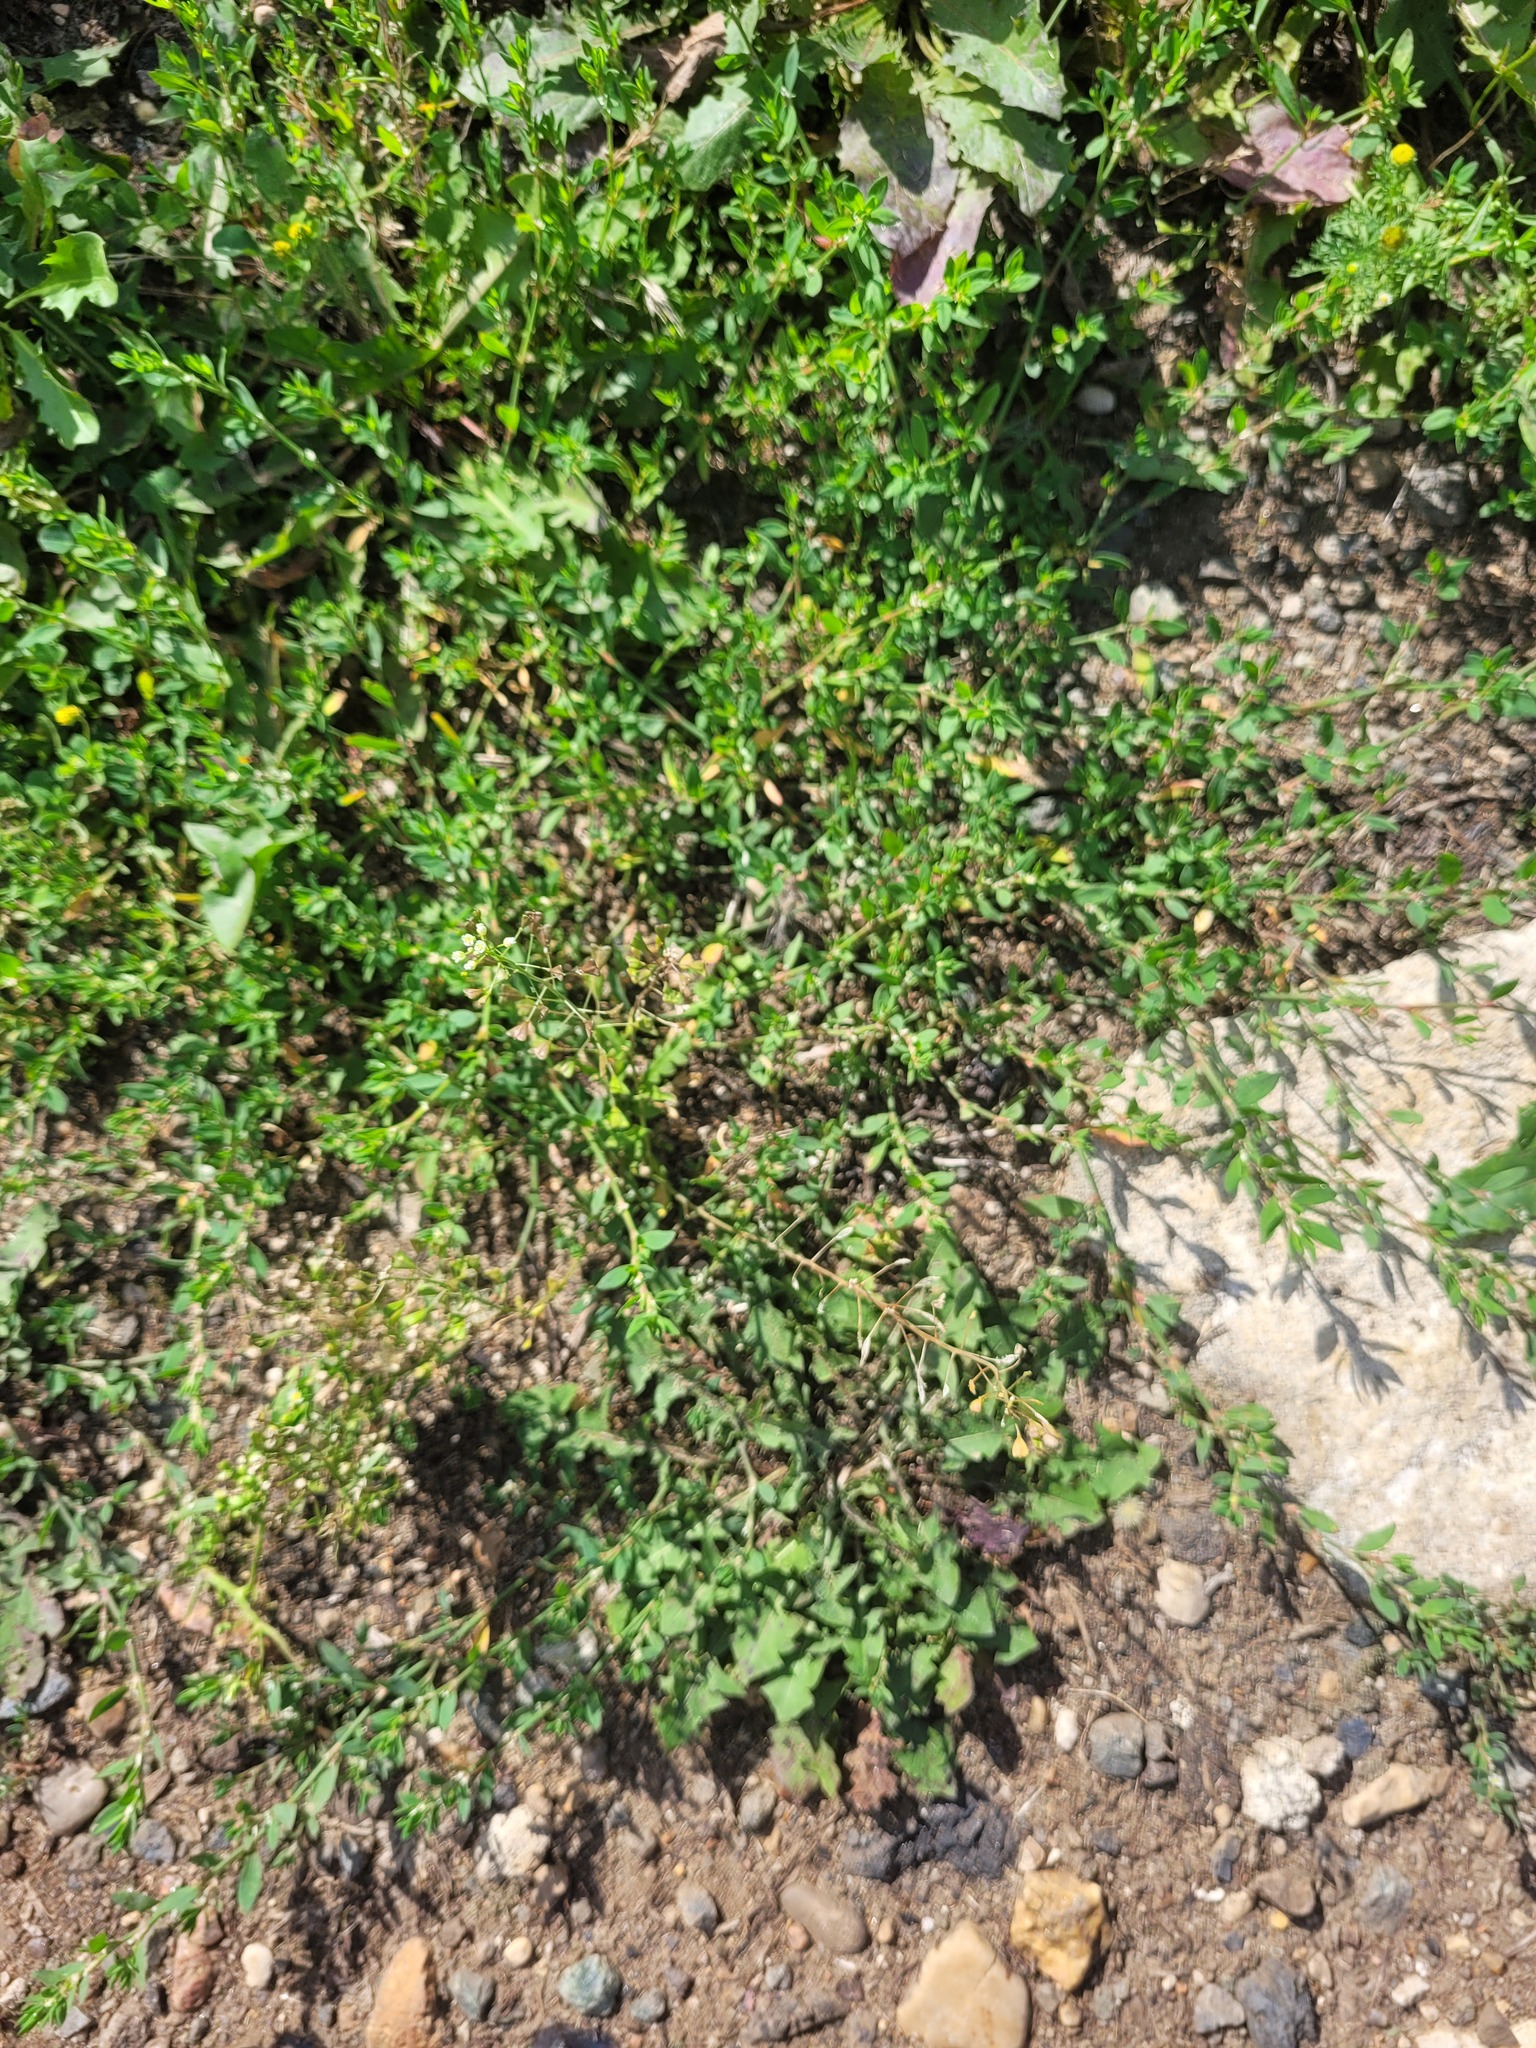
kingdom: Plantae
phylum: Tracheophyta
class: Magnoliopsida
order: Brassicales
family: Brassicaceae
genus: Capsella
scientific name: Capsella bursa-pastoris
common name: Shepherd's purse
